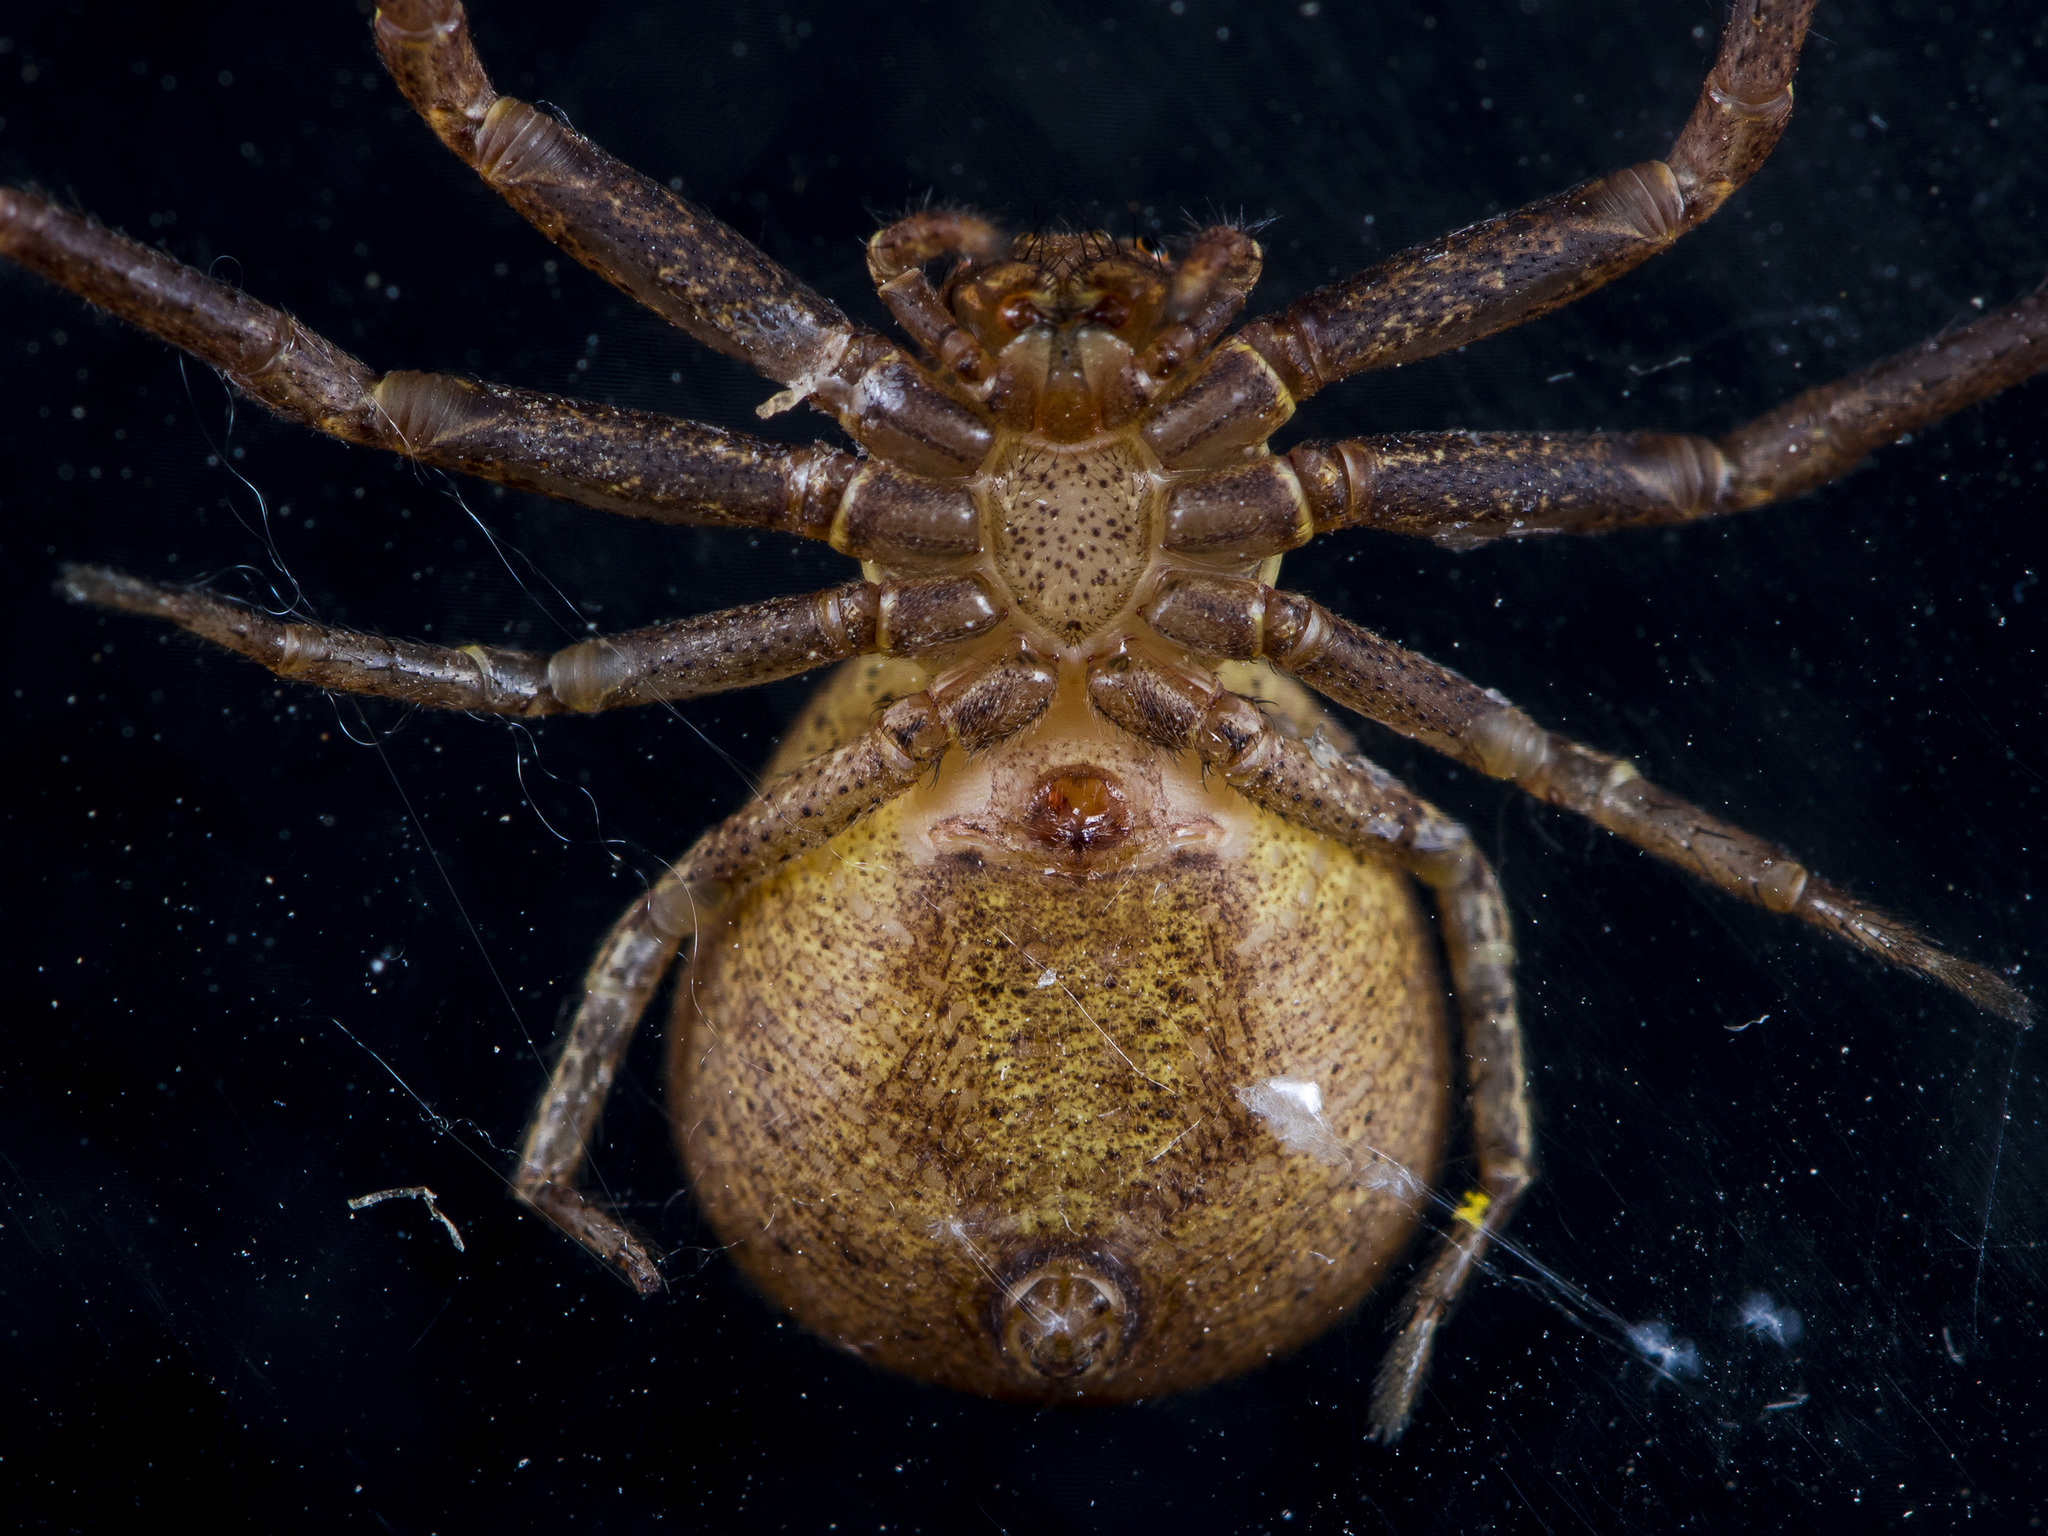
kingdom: Animalia
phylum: Arthropoda
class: Arachnida
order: Araneae
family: Thomisidae
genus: Xysticus
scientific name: Xysticus ephippiatus
